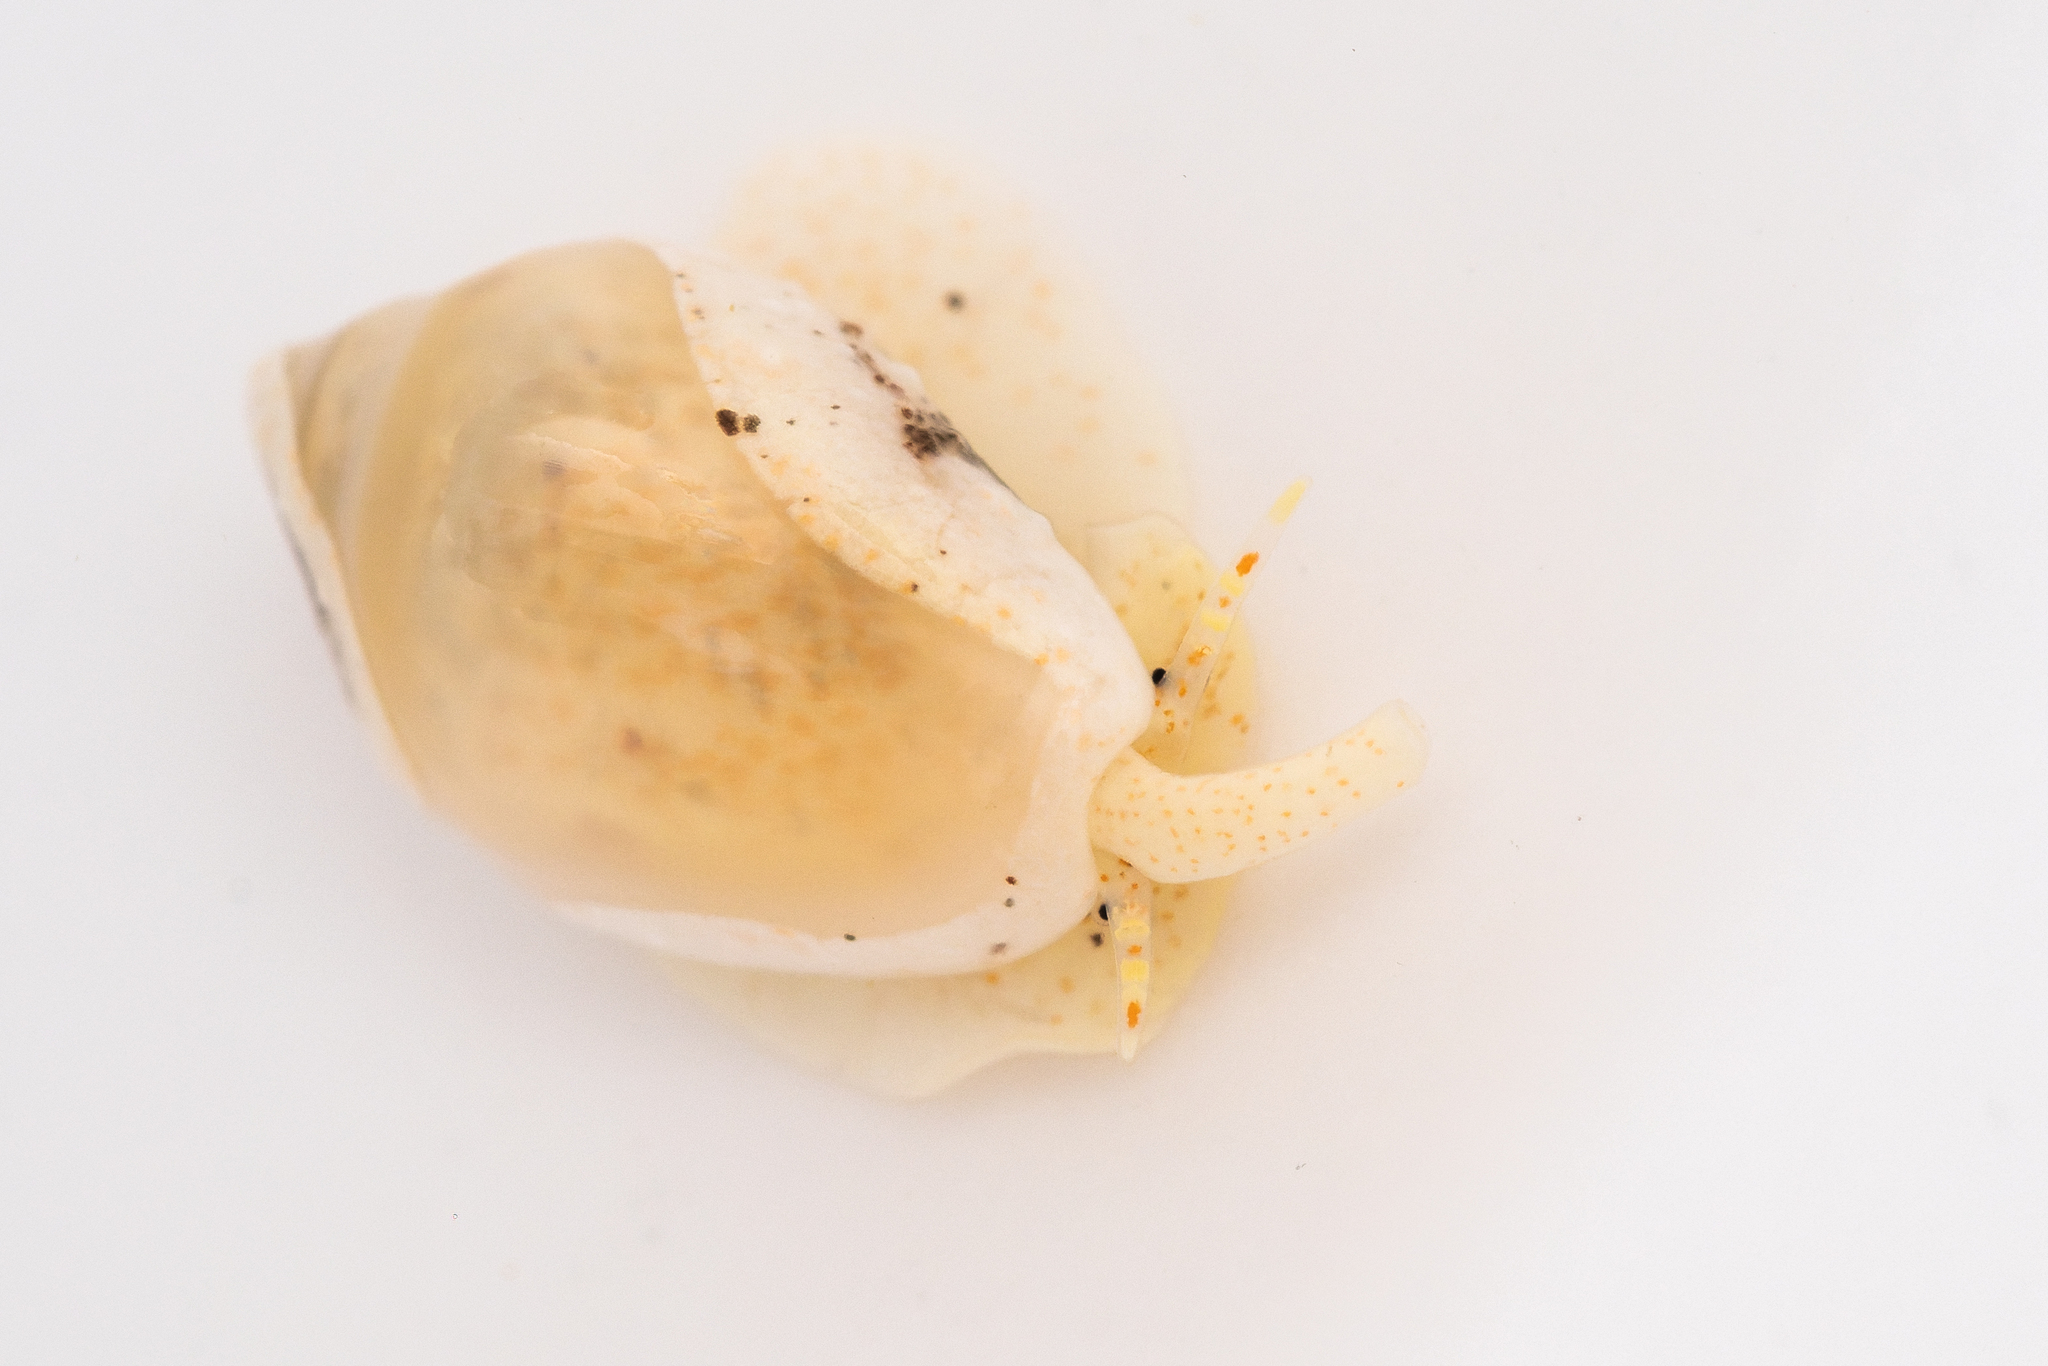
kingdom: Animalia
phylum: Mollusca
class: Gastropoda
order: Neogastropoda
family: Marginellidae
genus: Mesoginella
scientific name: Mesoginella koma
